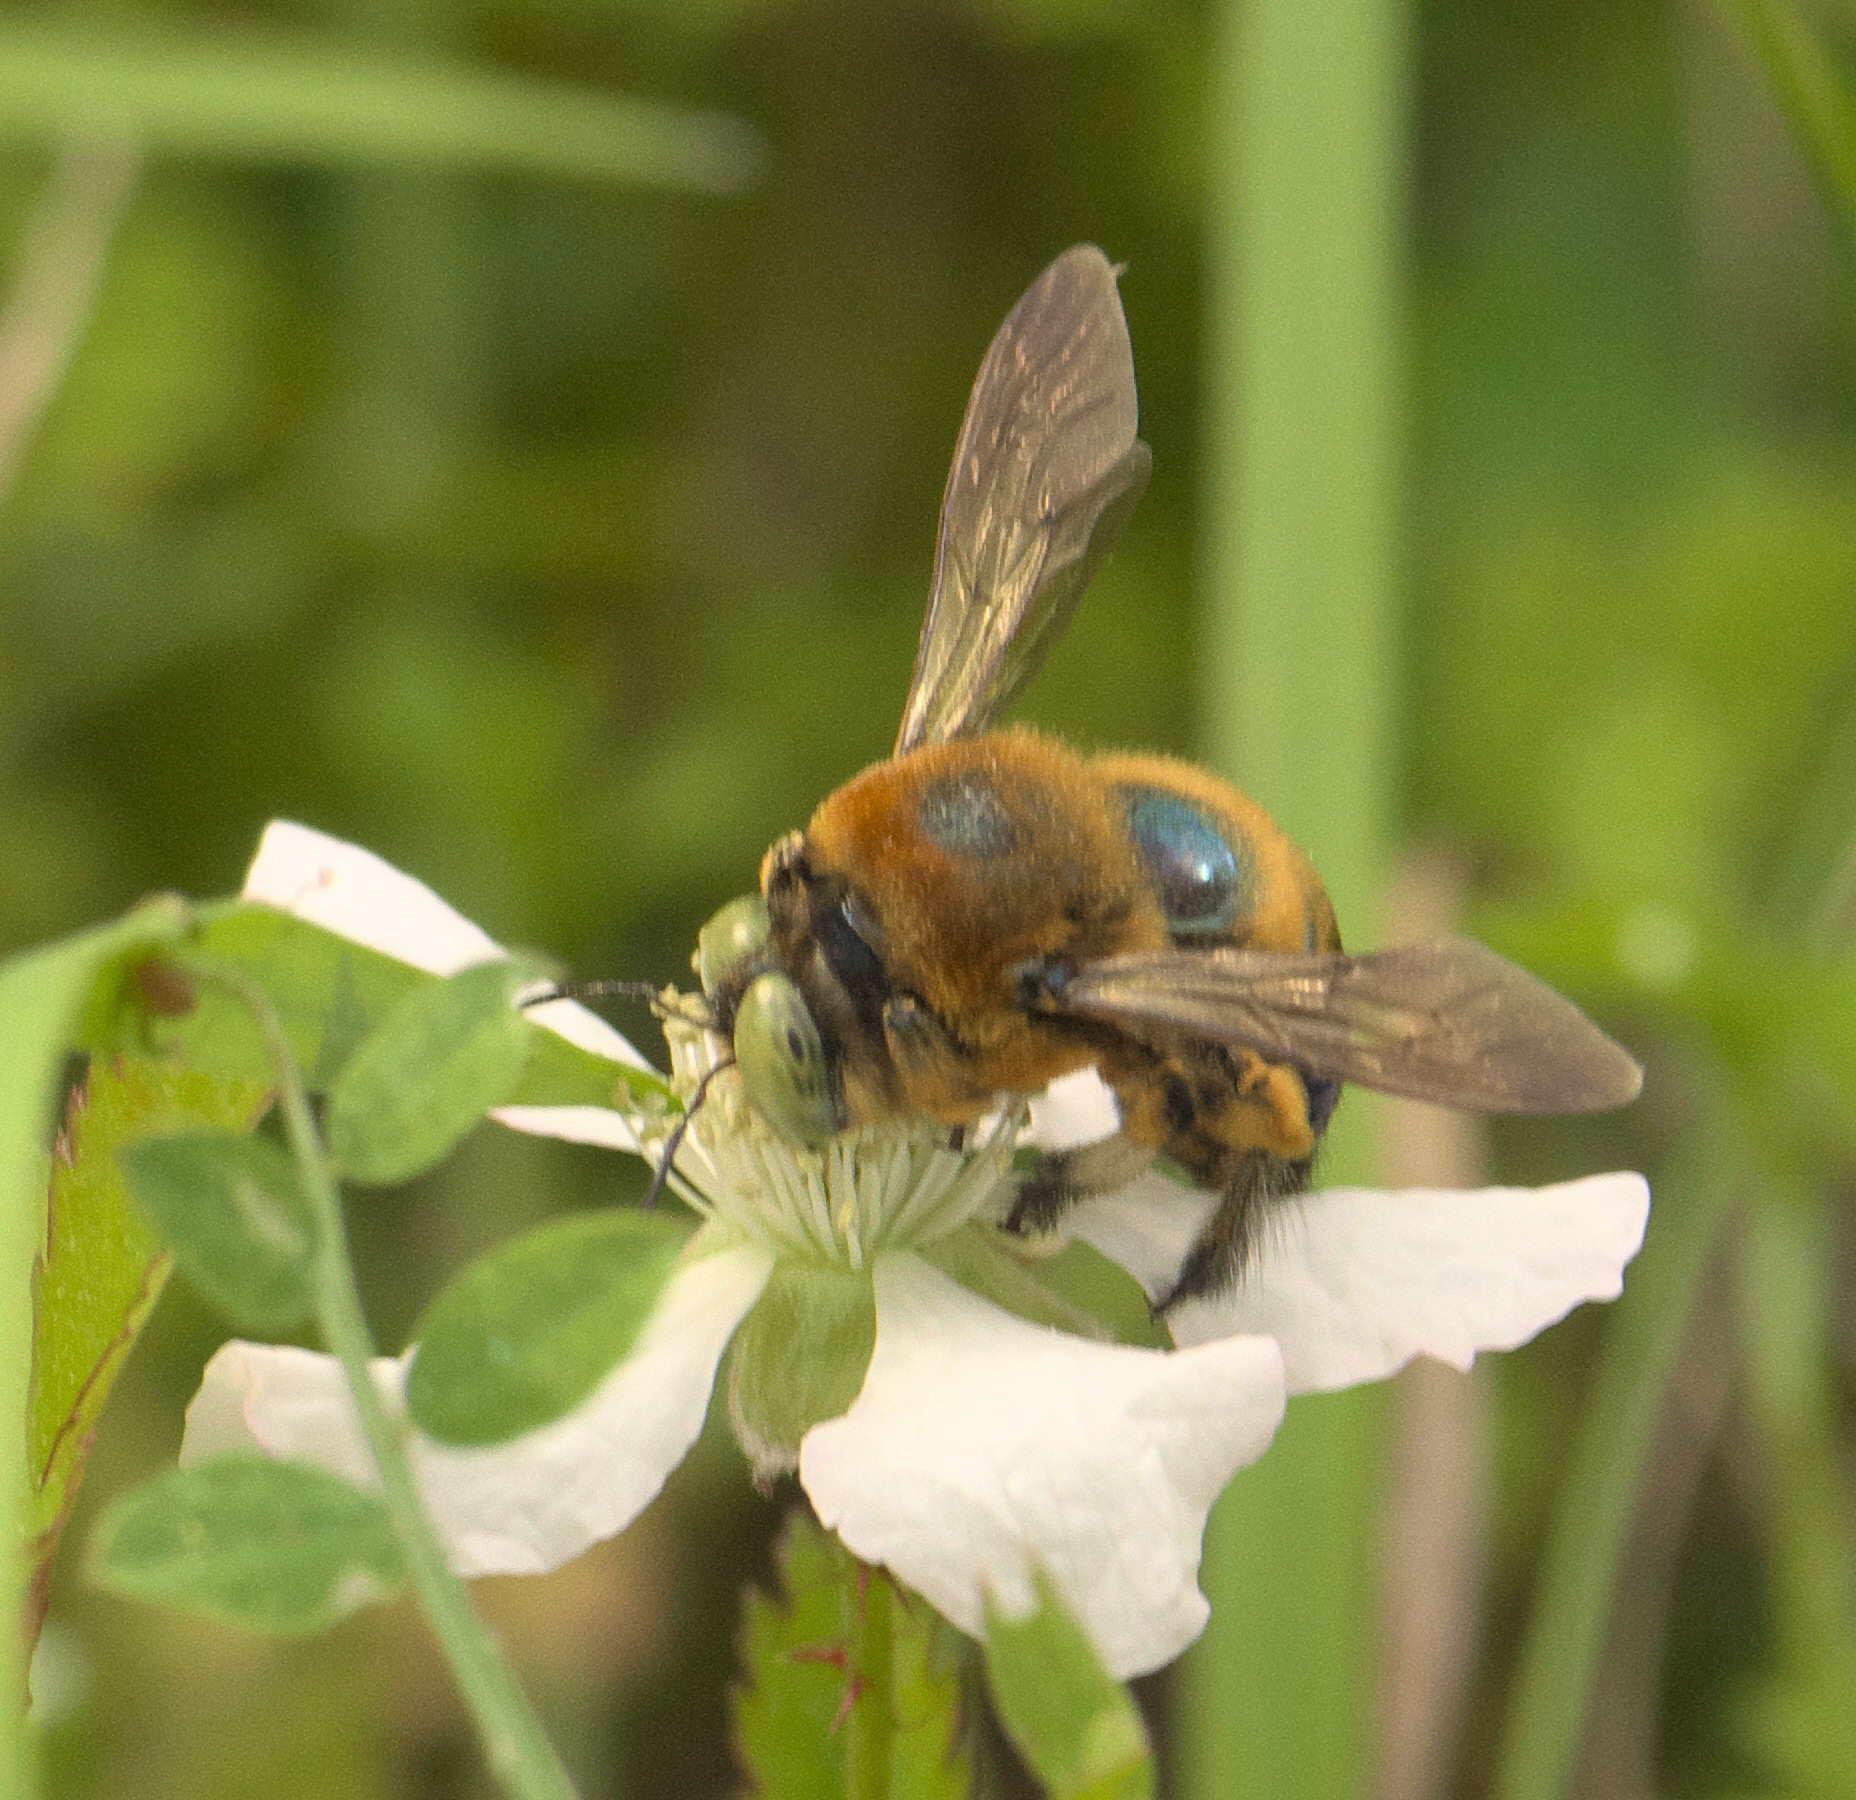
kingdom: Animalia
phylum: Arthropoda
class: Insecta
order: Hymenoptera
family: Apidae
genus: Xylocopa
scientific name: Xylocopa micans
